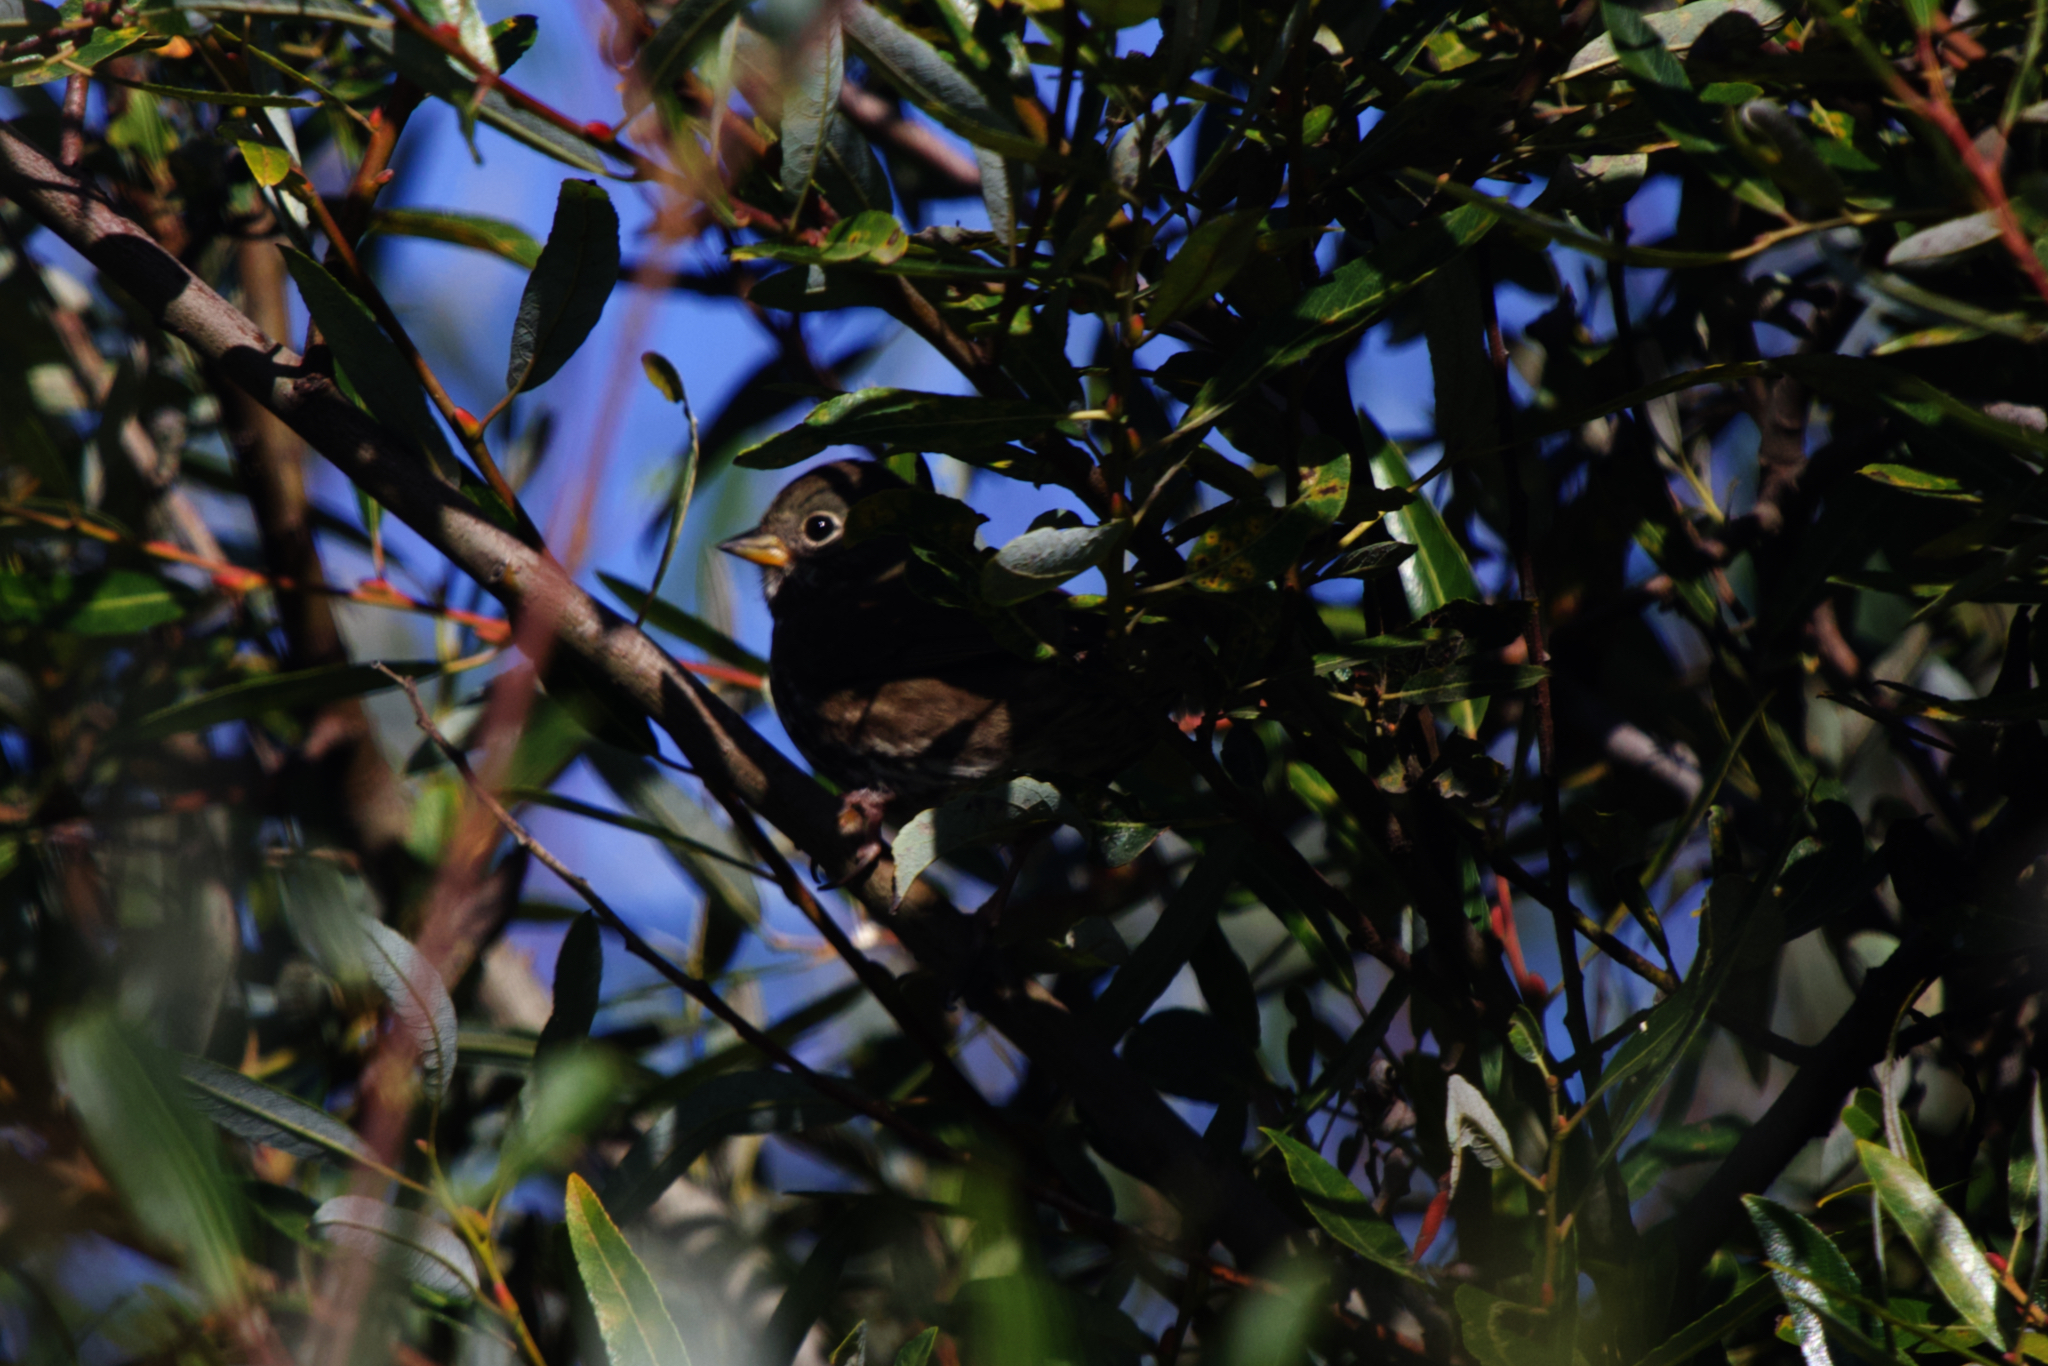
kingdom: Animalia
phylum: Chordata
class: Aves
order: Passeriformes
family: Passerellidae
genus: Passerella
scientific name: Passerella iliaca
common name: Fox sparrow
